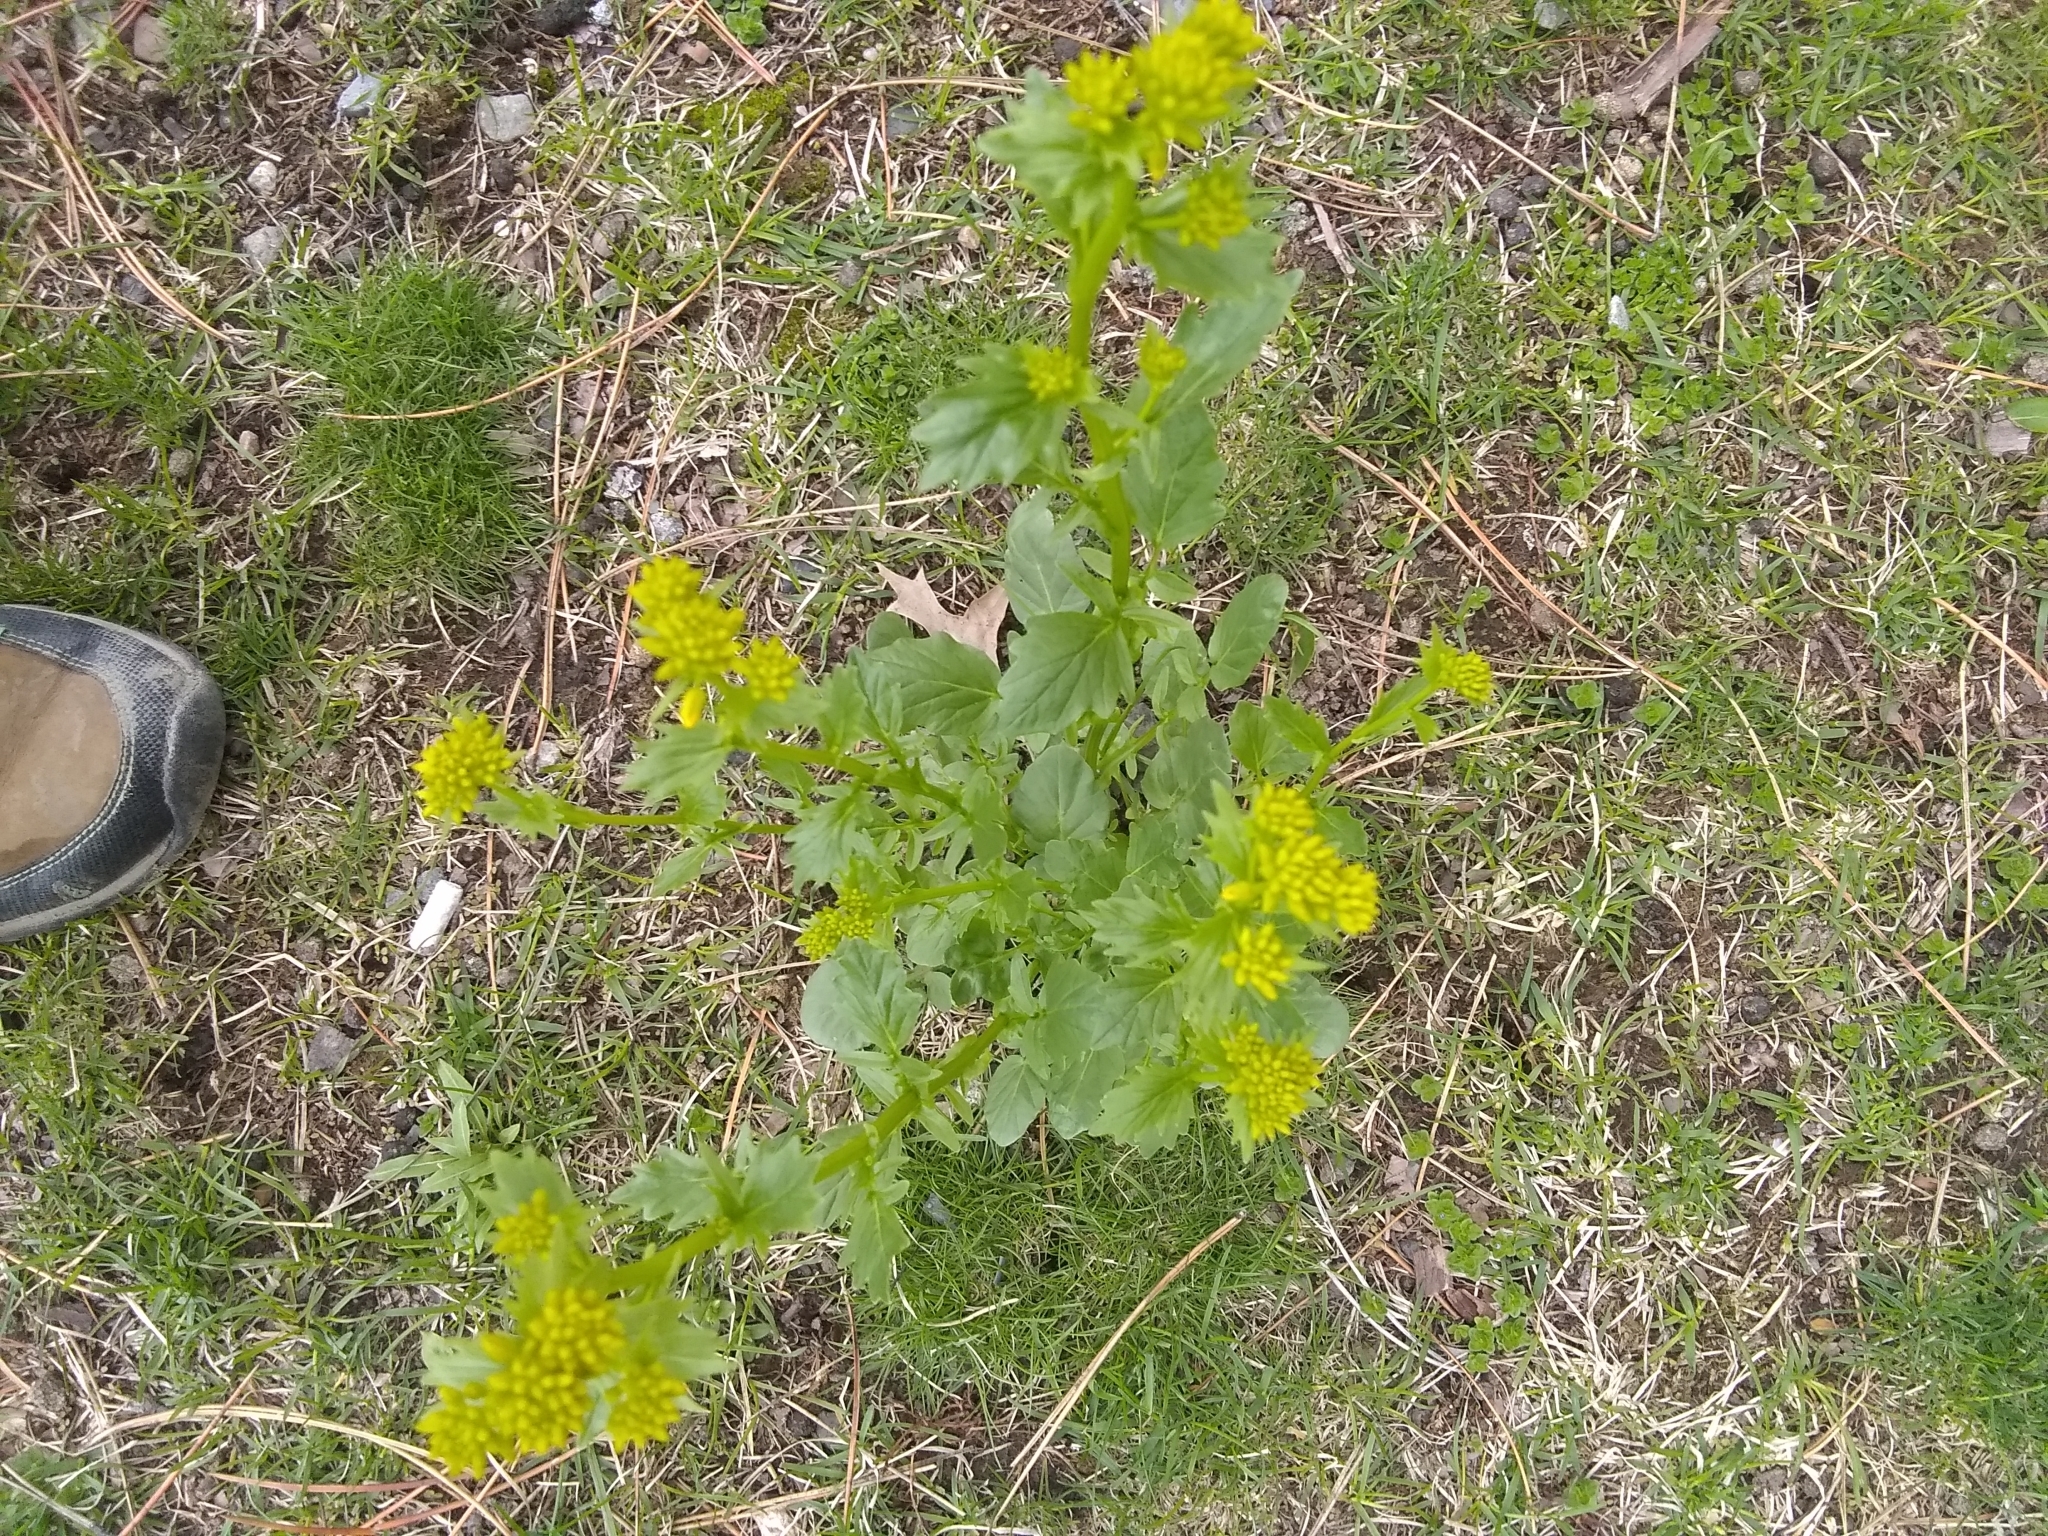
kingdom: Plantae
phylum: Tracheophyta
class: Magnoliopsida
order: Brassicales
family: Brassicaceae
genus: Barbarea
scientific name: Barbarea vulgaris
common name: Cressy-greens
